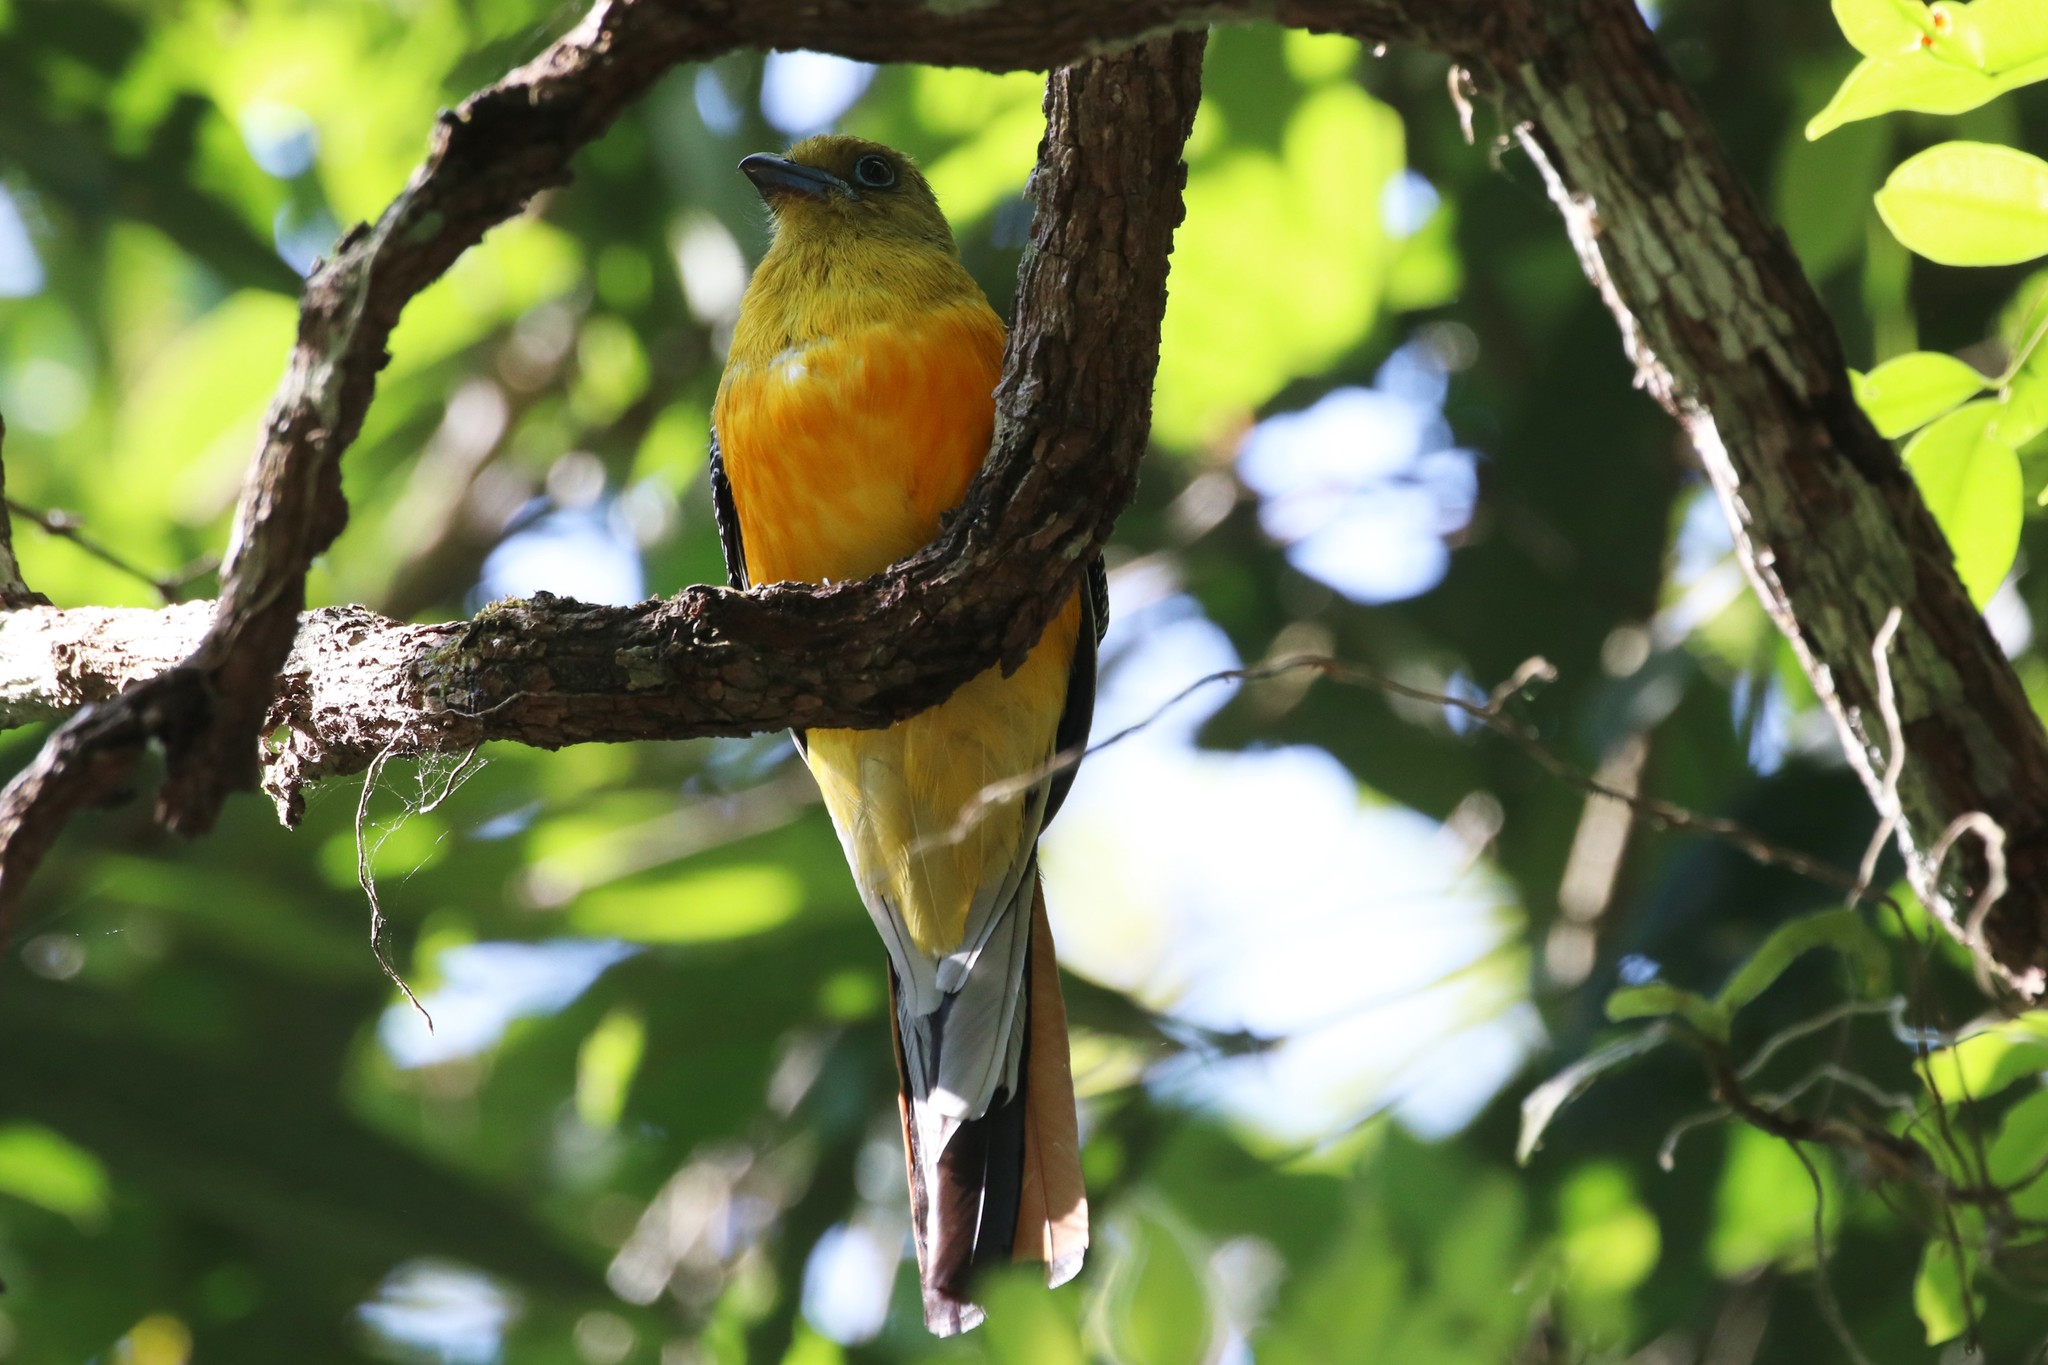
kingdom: Animalia
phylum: Chordata
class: Aves
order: Trogoniformes
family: Trogonidae
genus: Harpactes
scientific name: Harpactes oreskios
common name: Orange-breasted trogon
